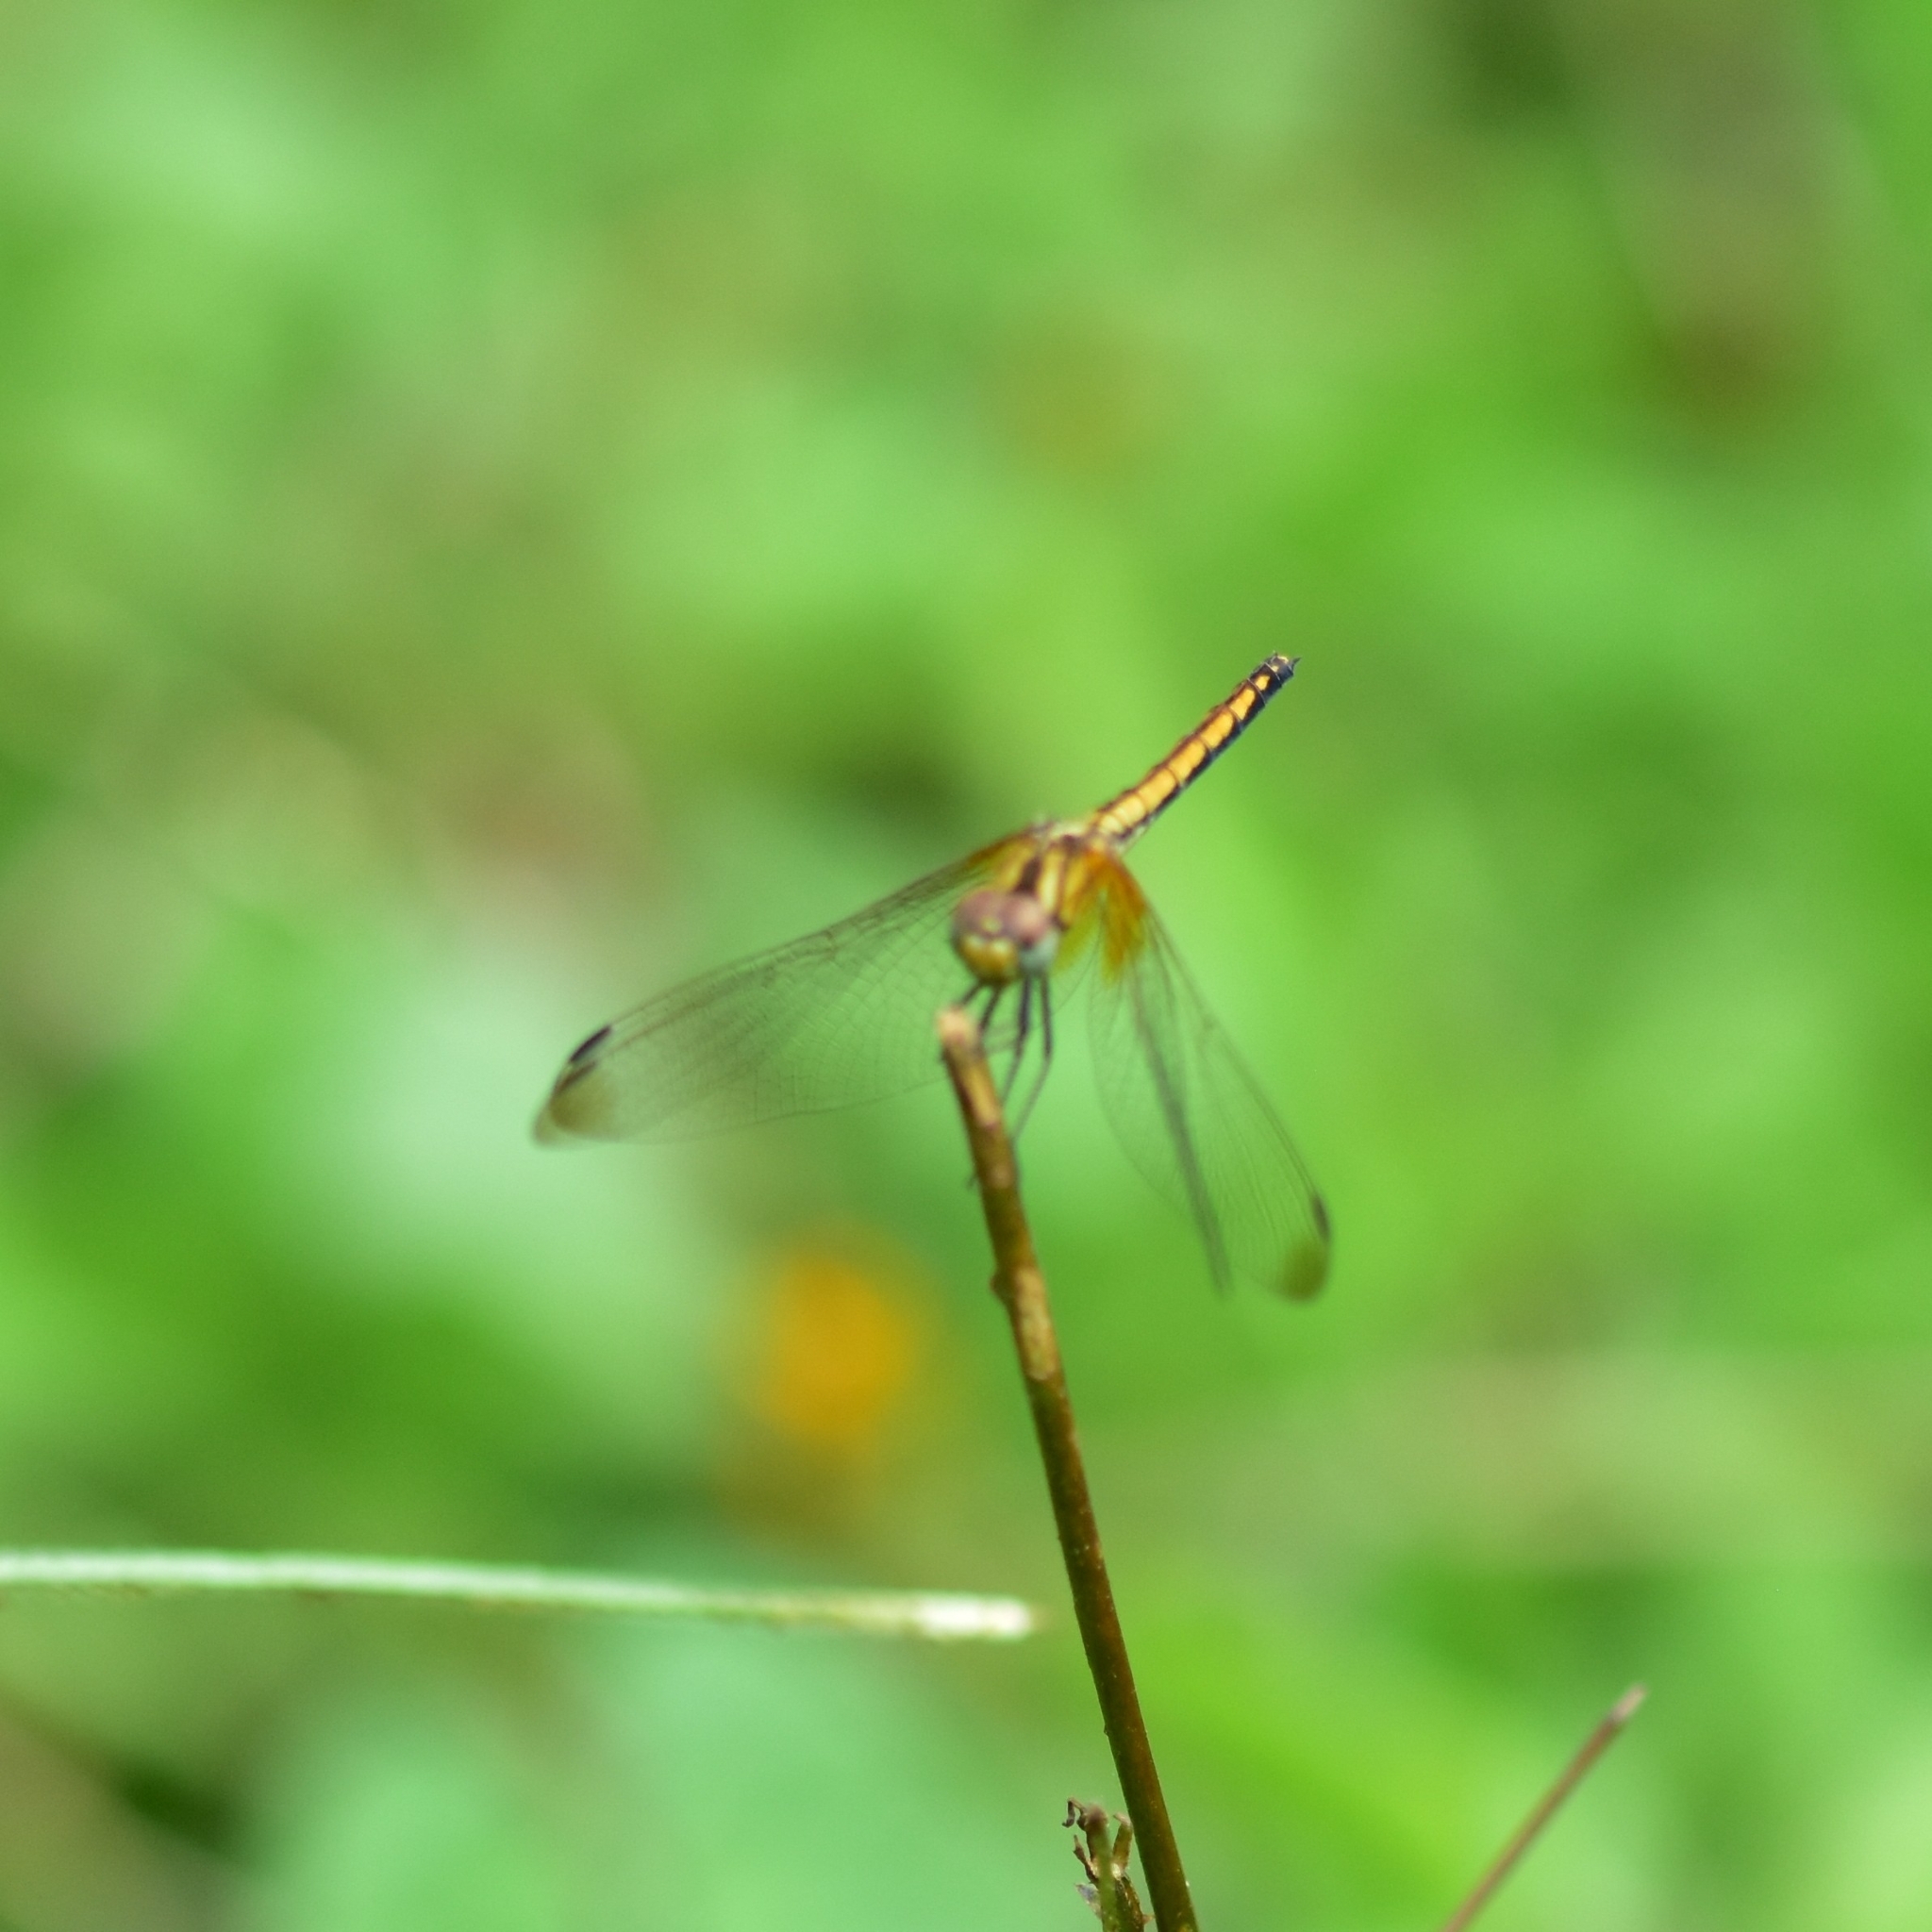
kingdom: Animalia
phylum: Arthropoda
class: Insecta
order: Odonata
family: Libellulidae
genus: Trithemis
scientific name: Trithemis aurora
